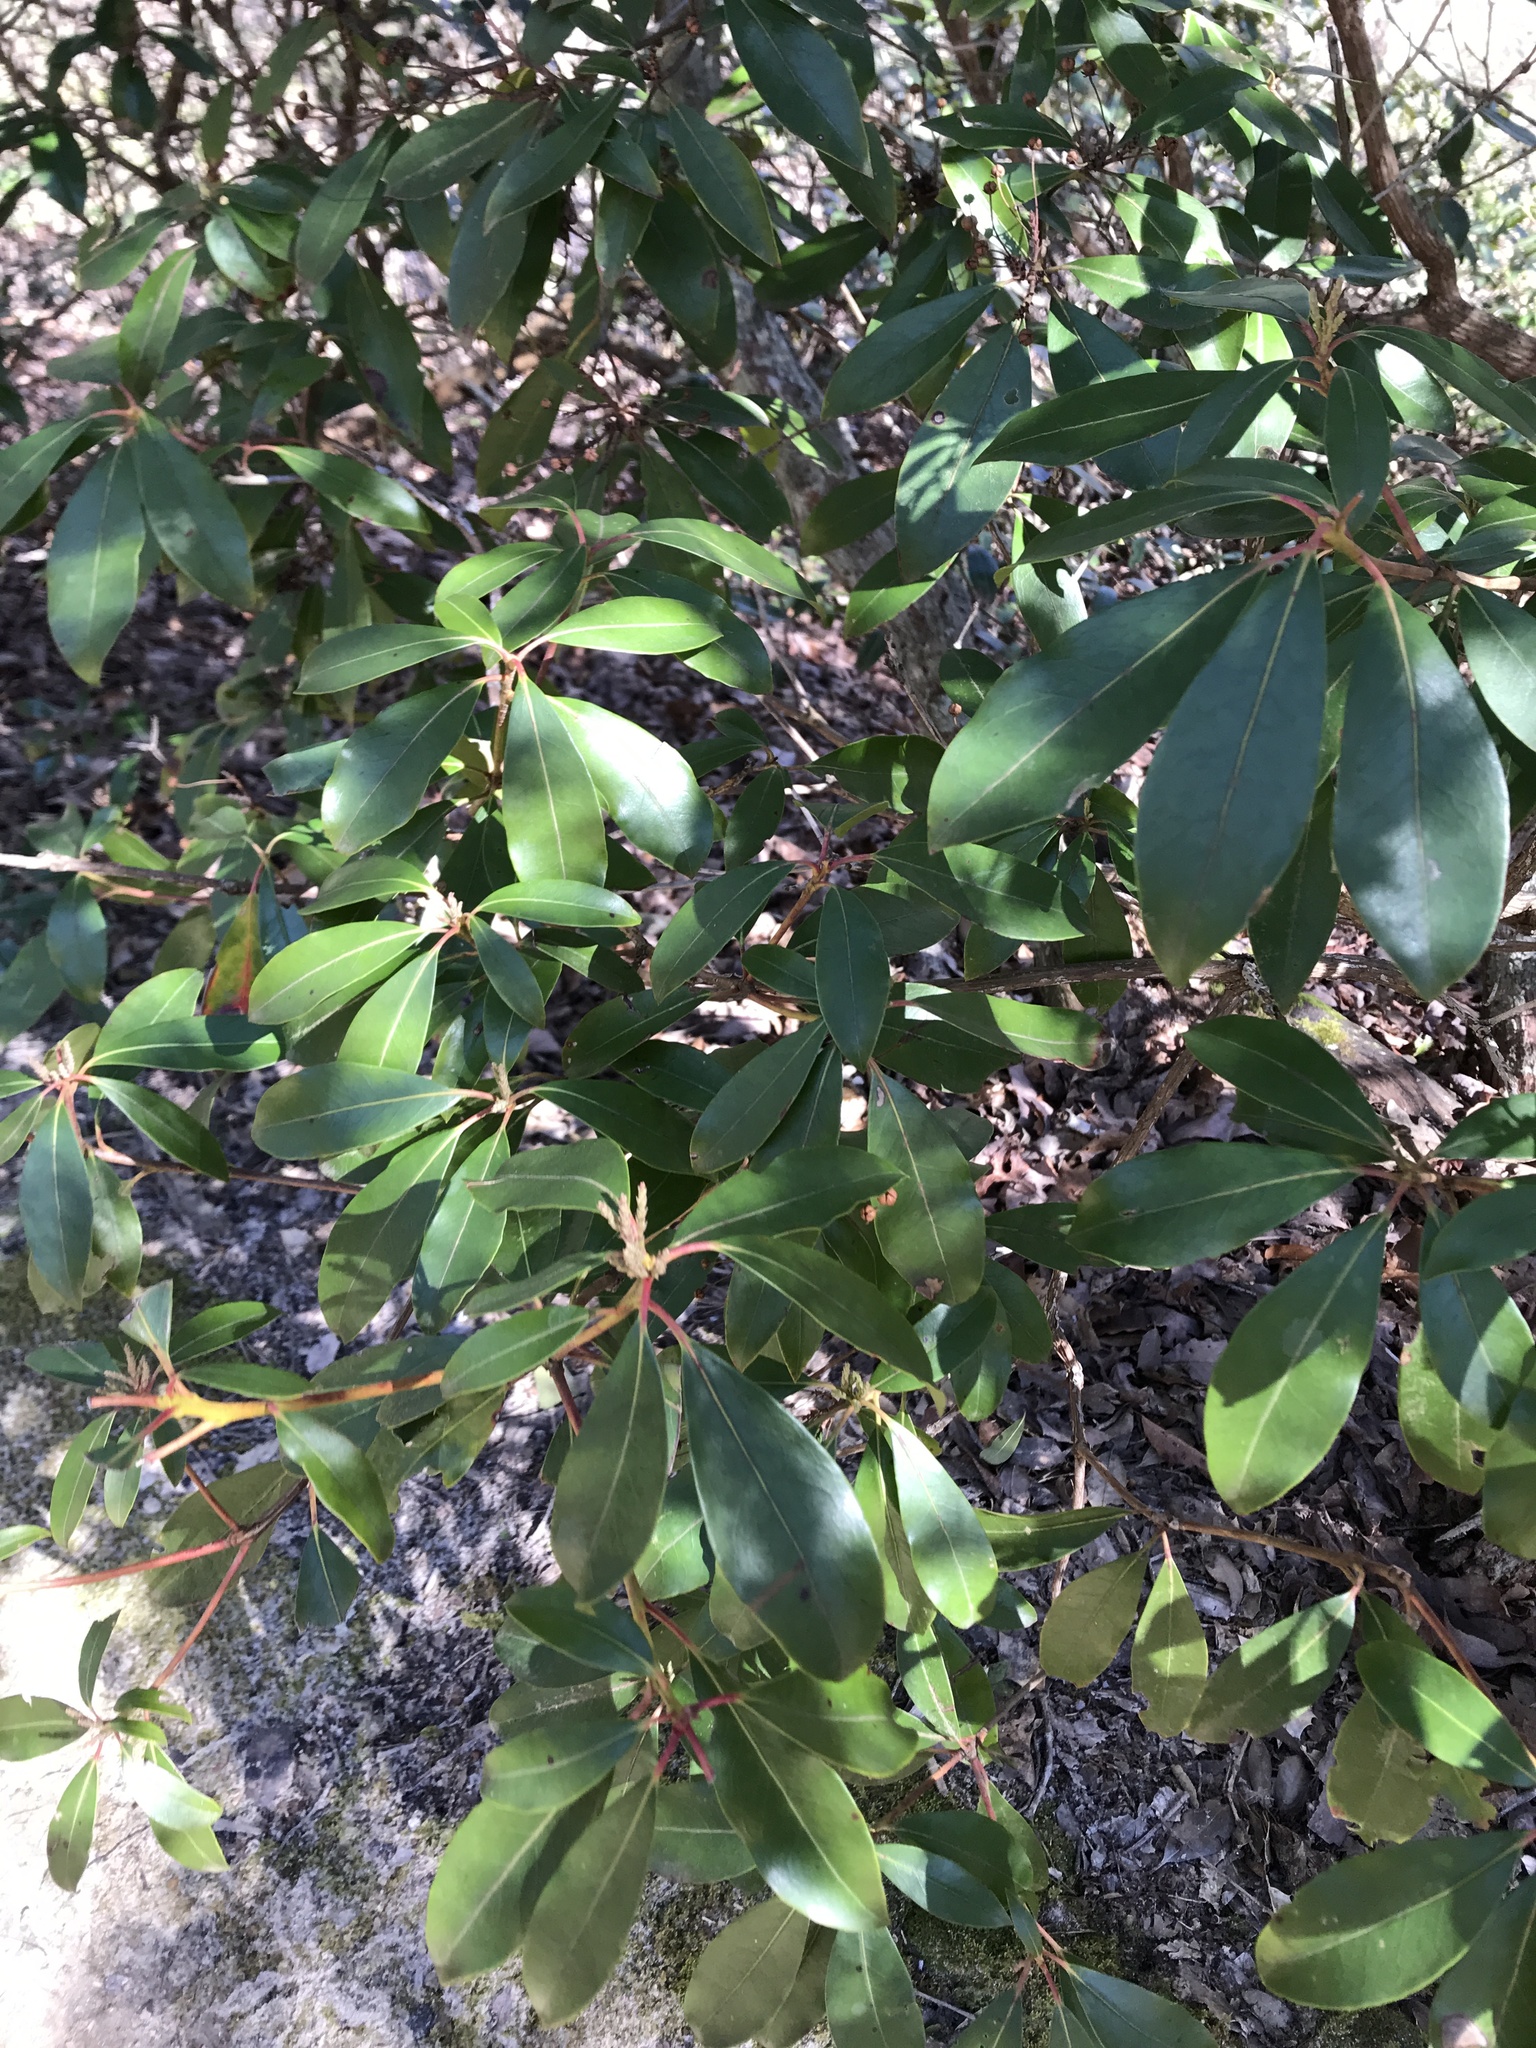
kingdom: Plantae
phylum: Tracheophyta
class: Magnoliopsida
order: Ericales
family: Ericaceae
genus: Kalmia
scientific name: Kalmia latifolia
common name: Mountain-laurel
